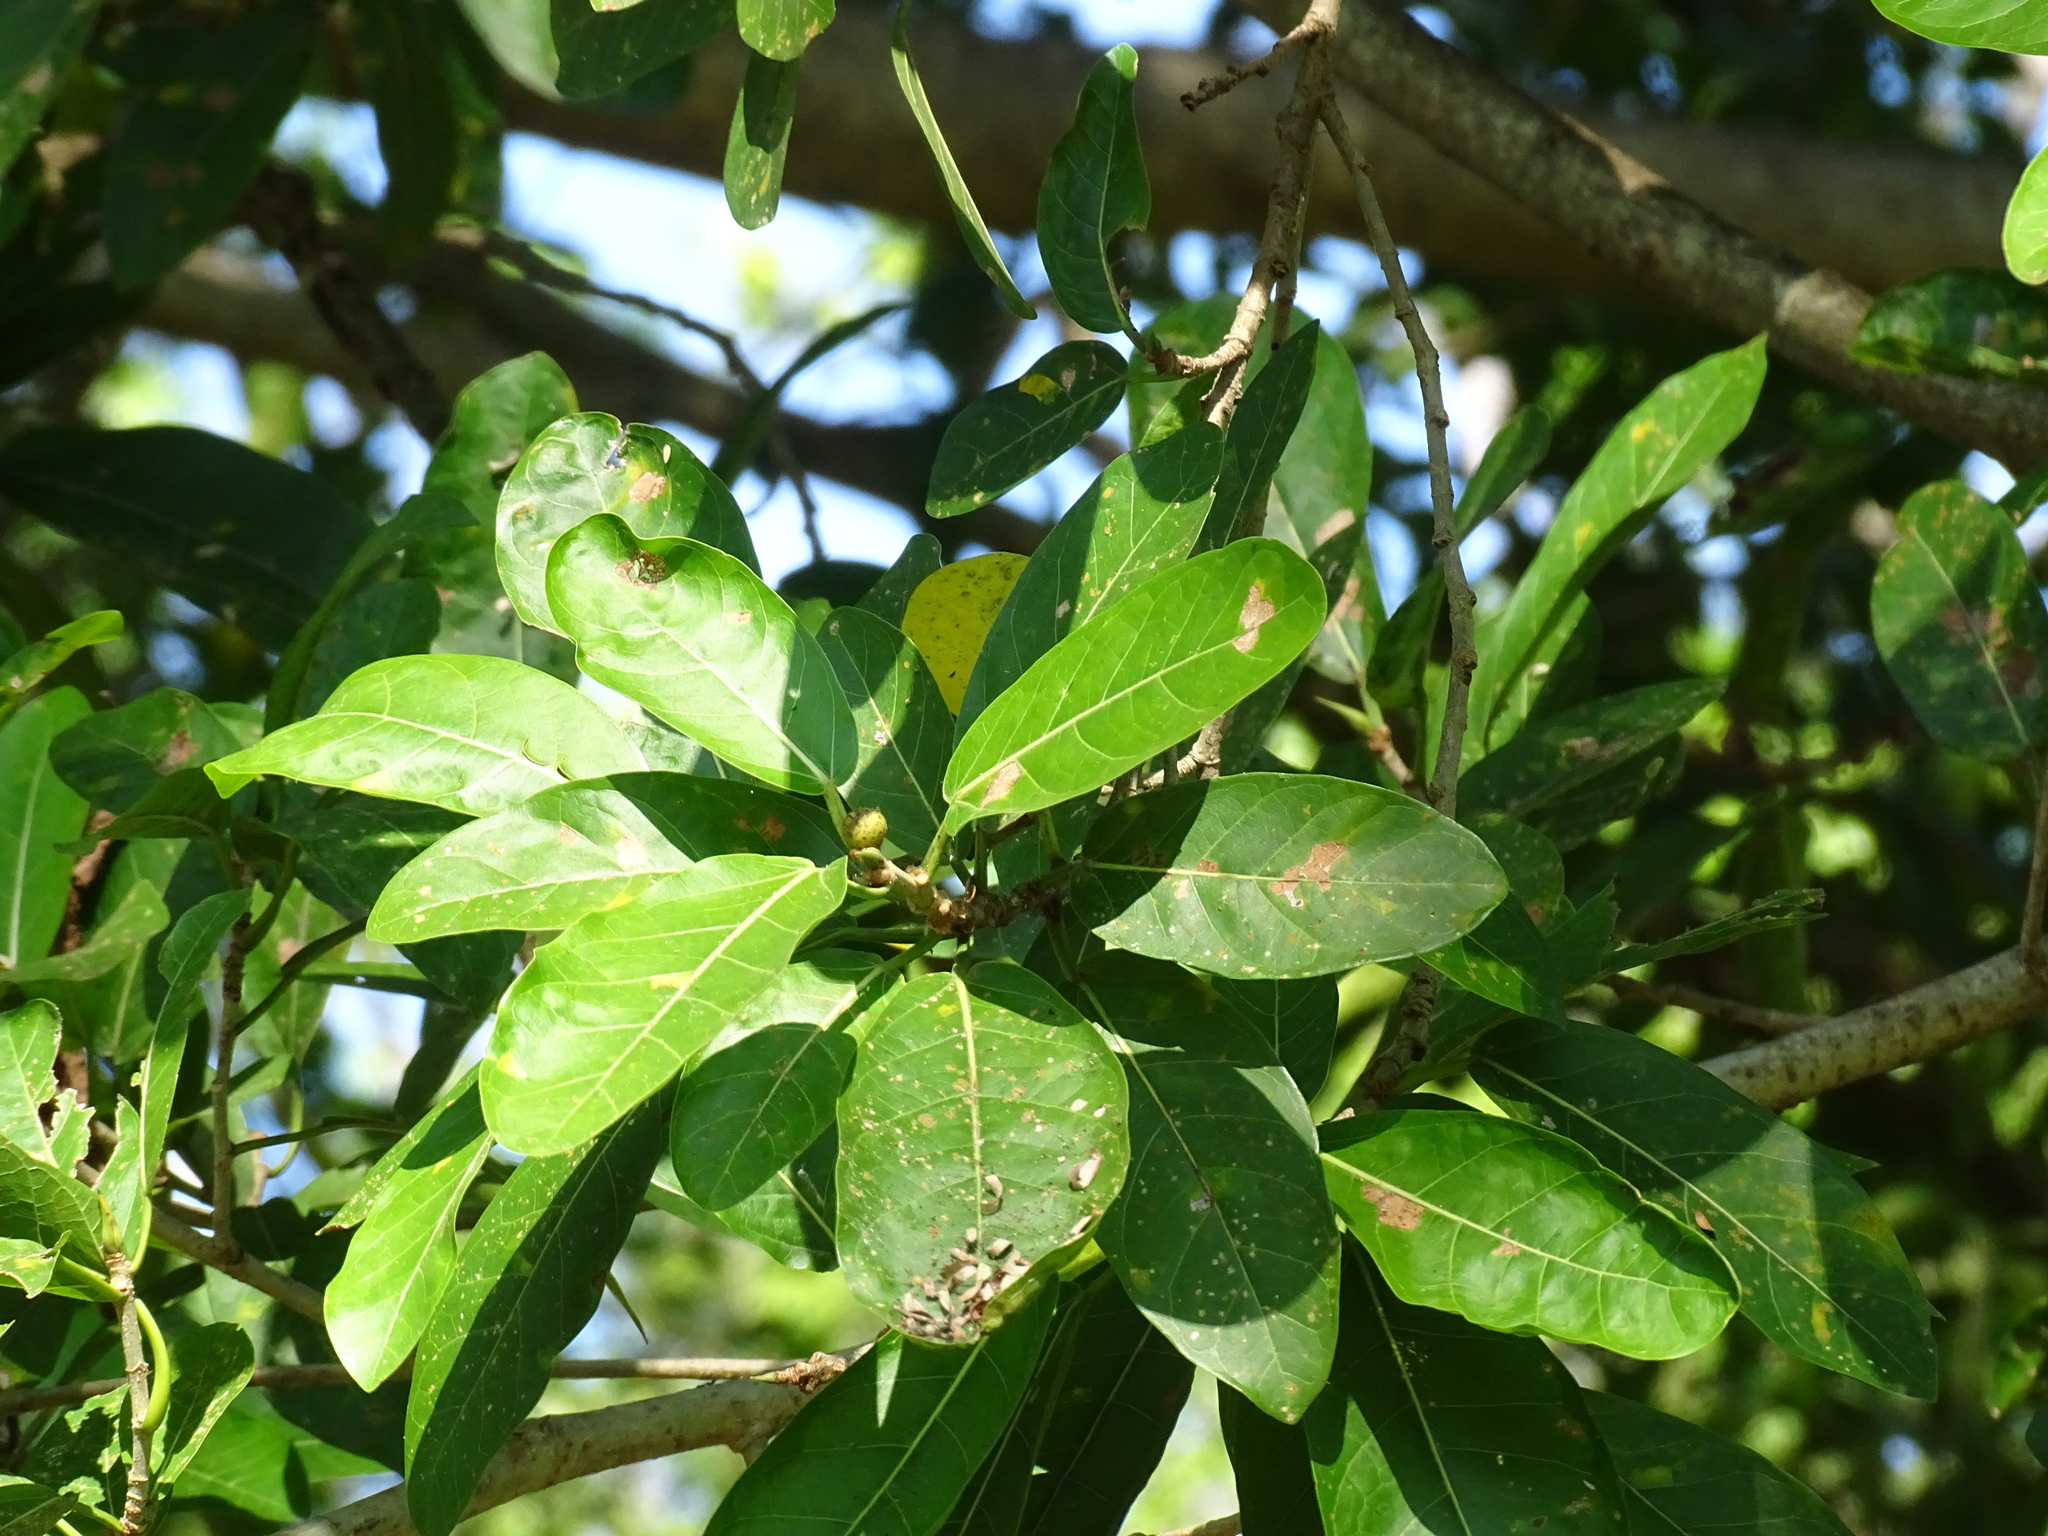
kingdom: Plantae
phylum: Tracheophyta
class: Magnoliopsida
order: Rosales
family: Moraceae
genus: Ficus
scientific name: Ficus costaricana
